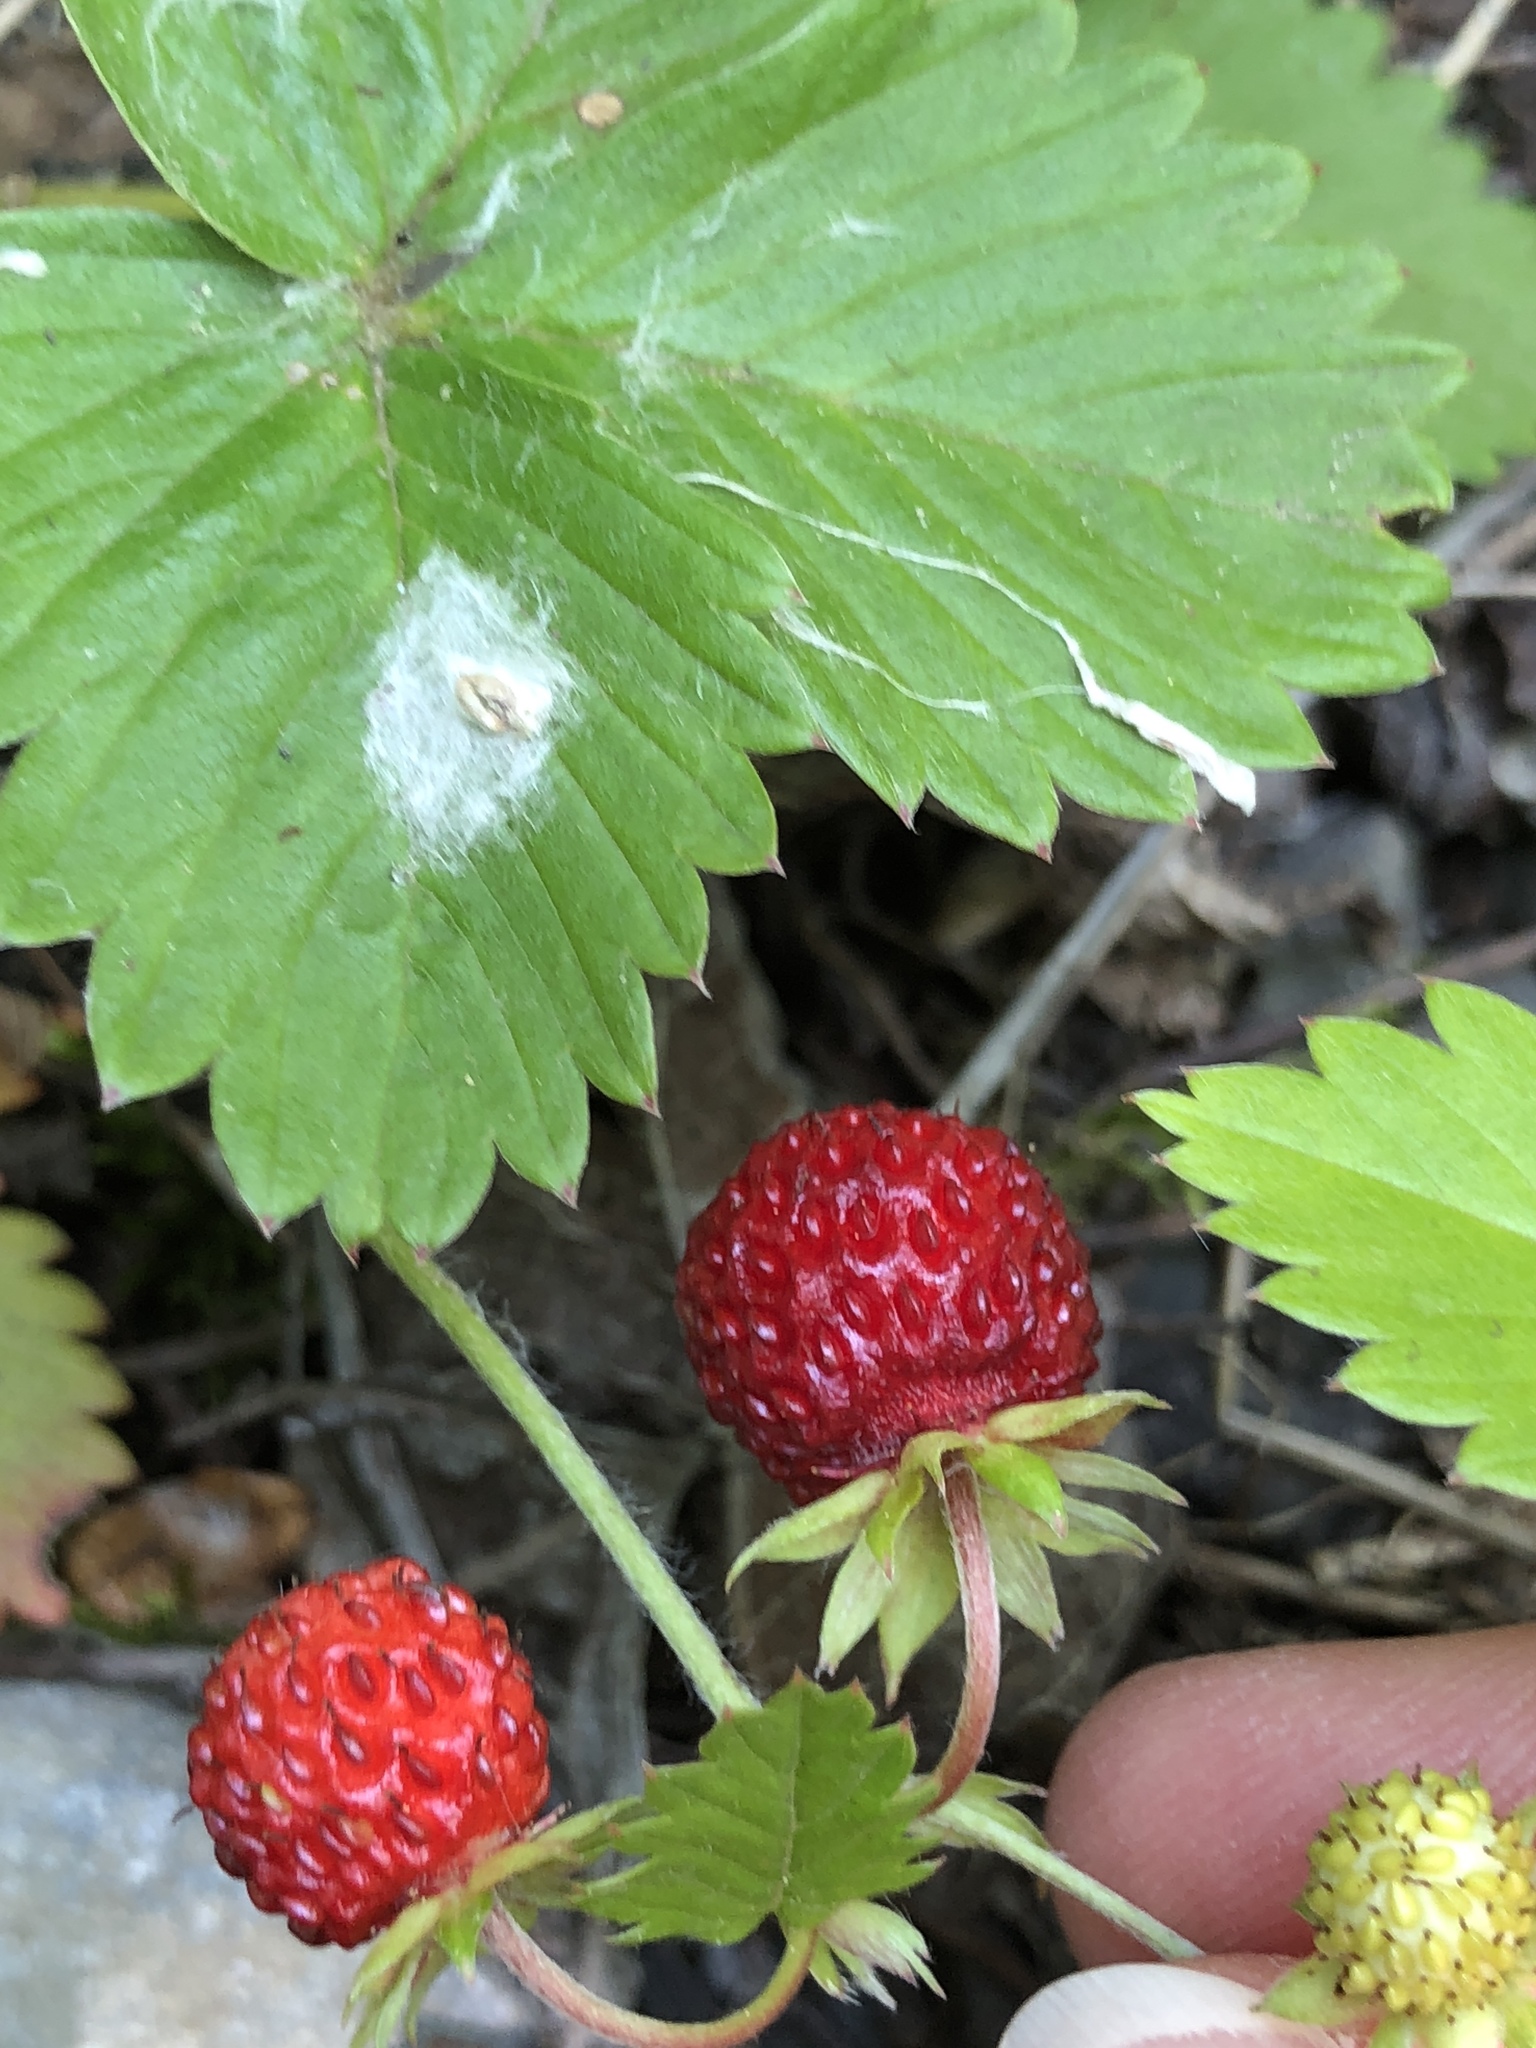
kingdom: Plantae
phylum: Tracheophyta
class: Magnoliopsida
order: Rosales
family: Rosaceae
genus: Fragaria
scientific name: Fragaria vesca
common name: Wild strawberry
